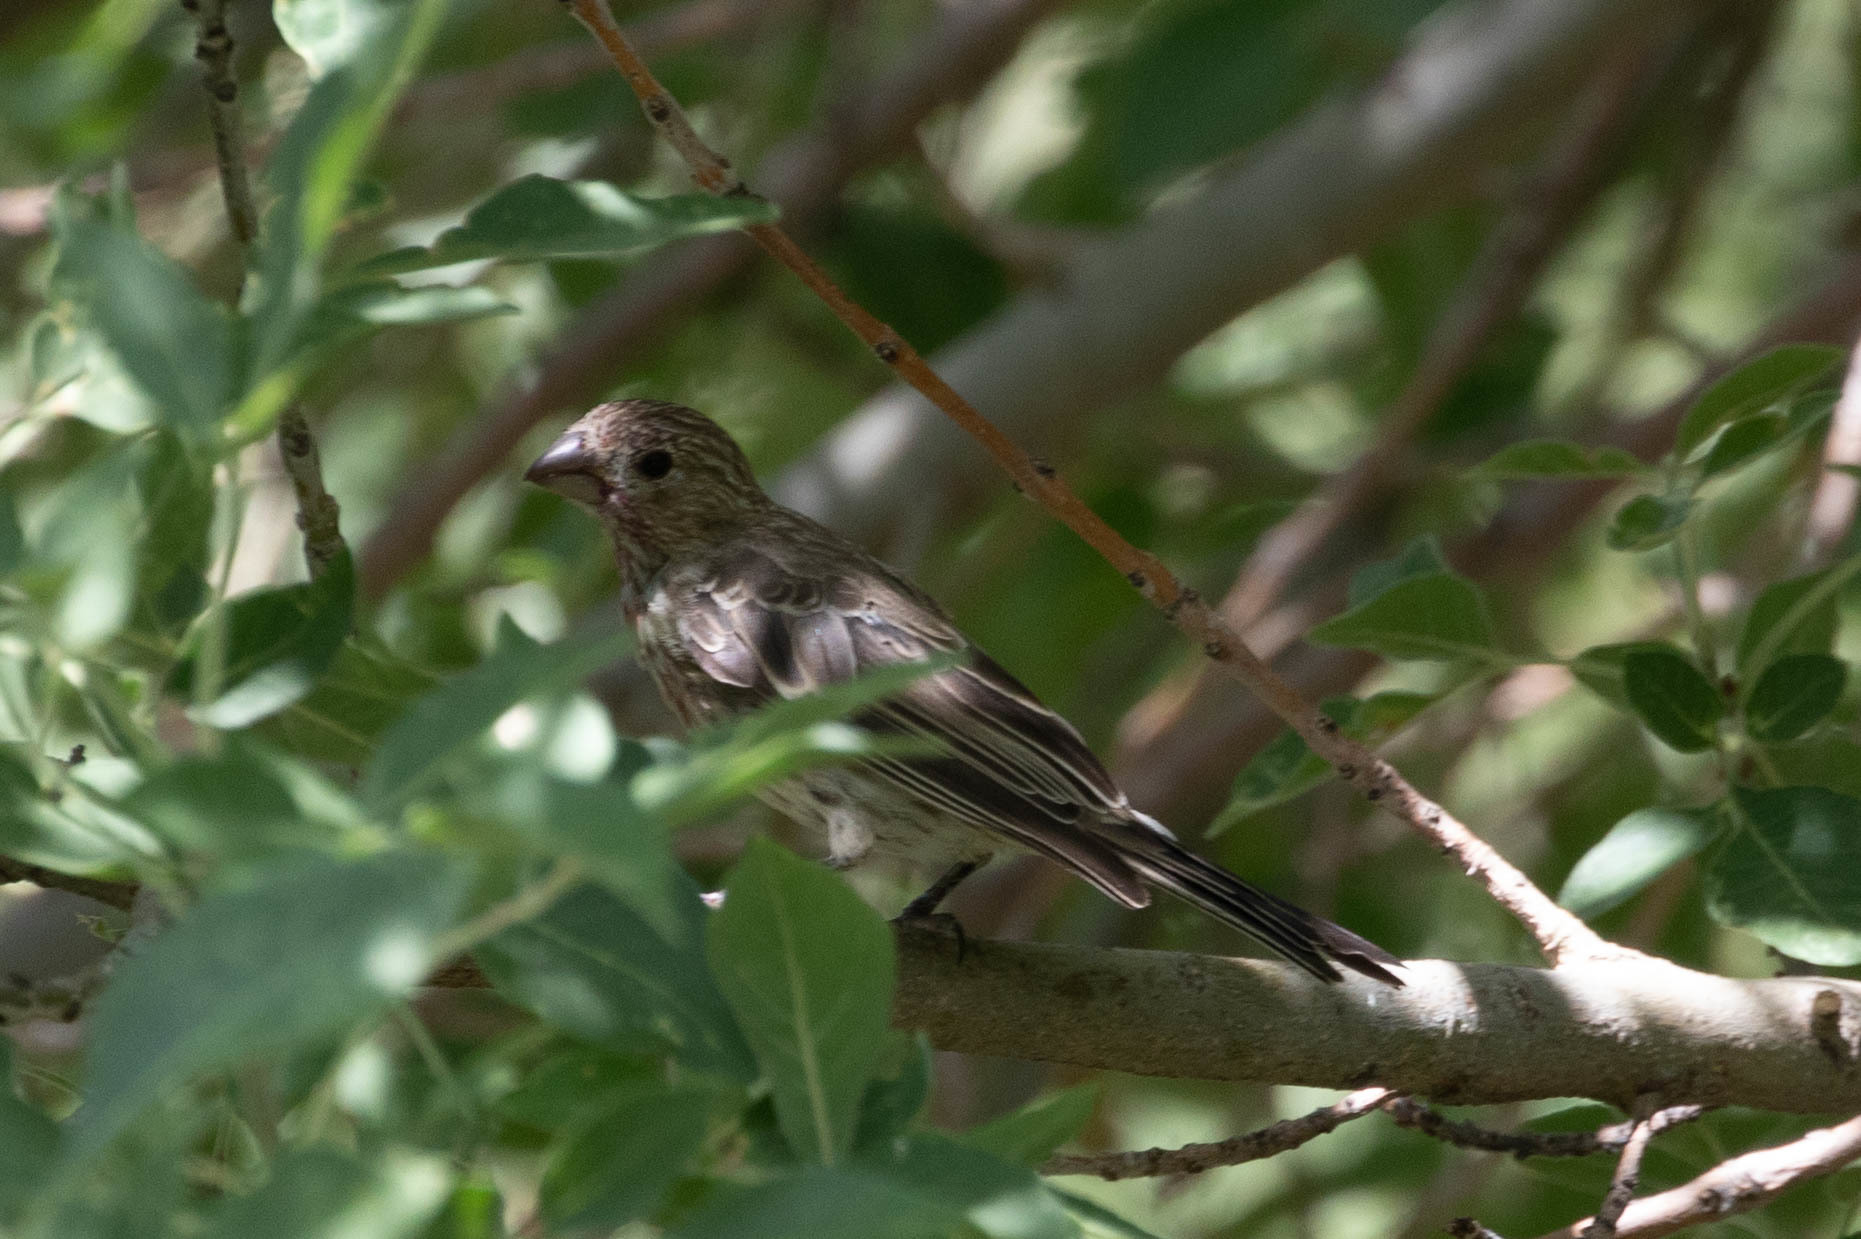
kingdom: Animalia
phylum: Chordata
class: Aves
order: Passeriformes
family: Fringillidae
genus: Haemorhous
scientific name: Haemorhous mexicanus
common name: House finch
